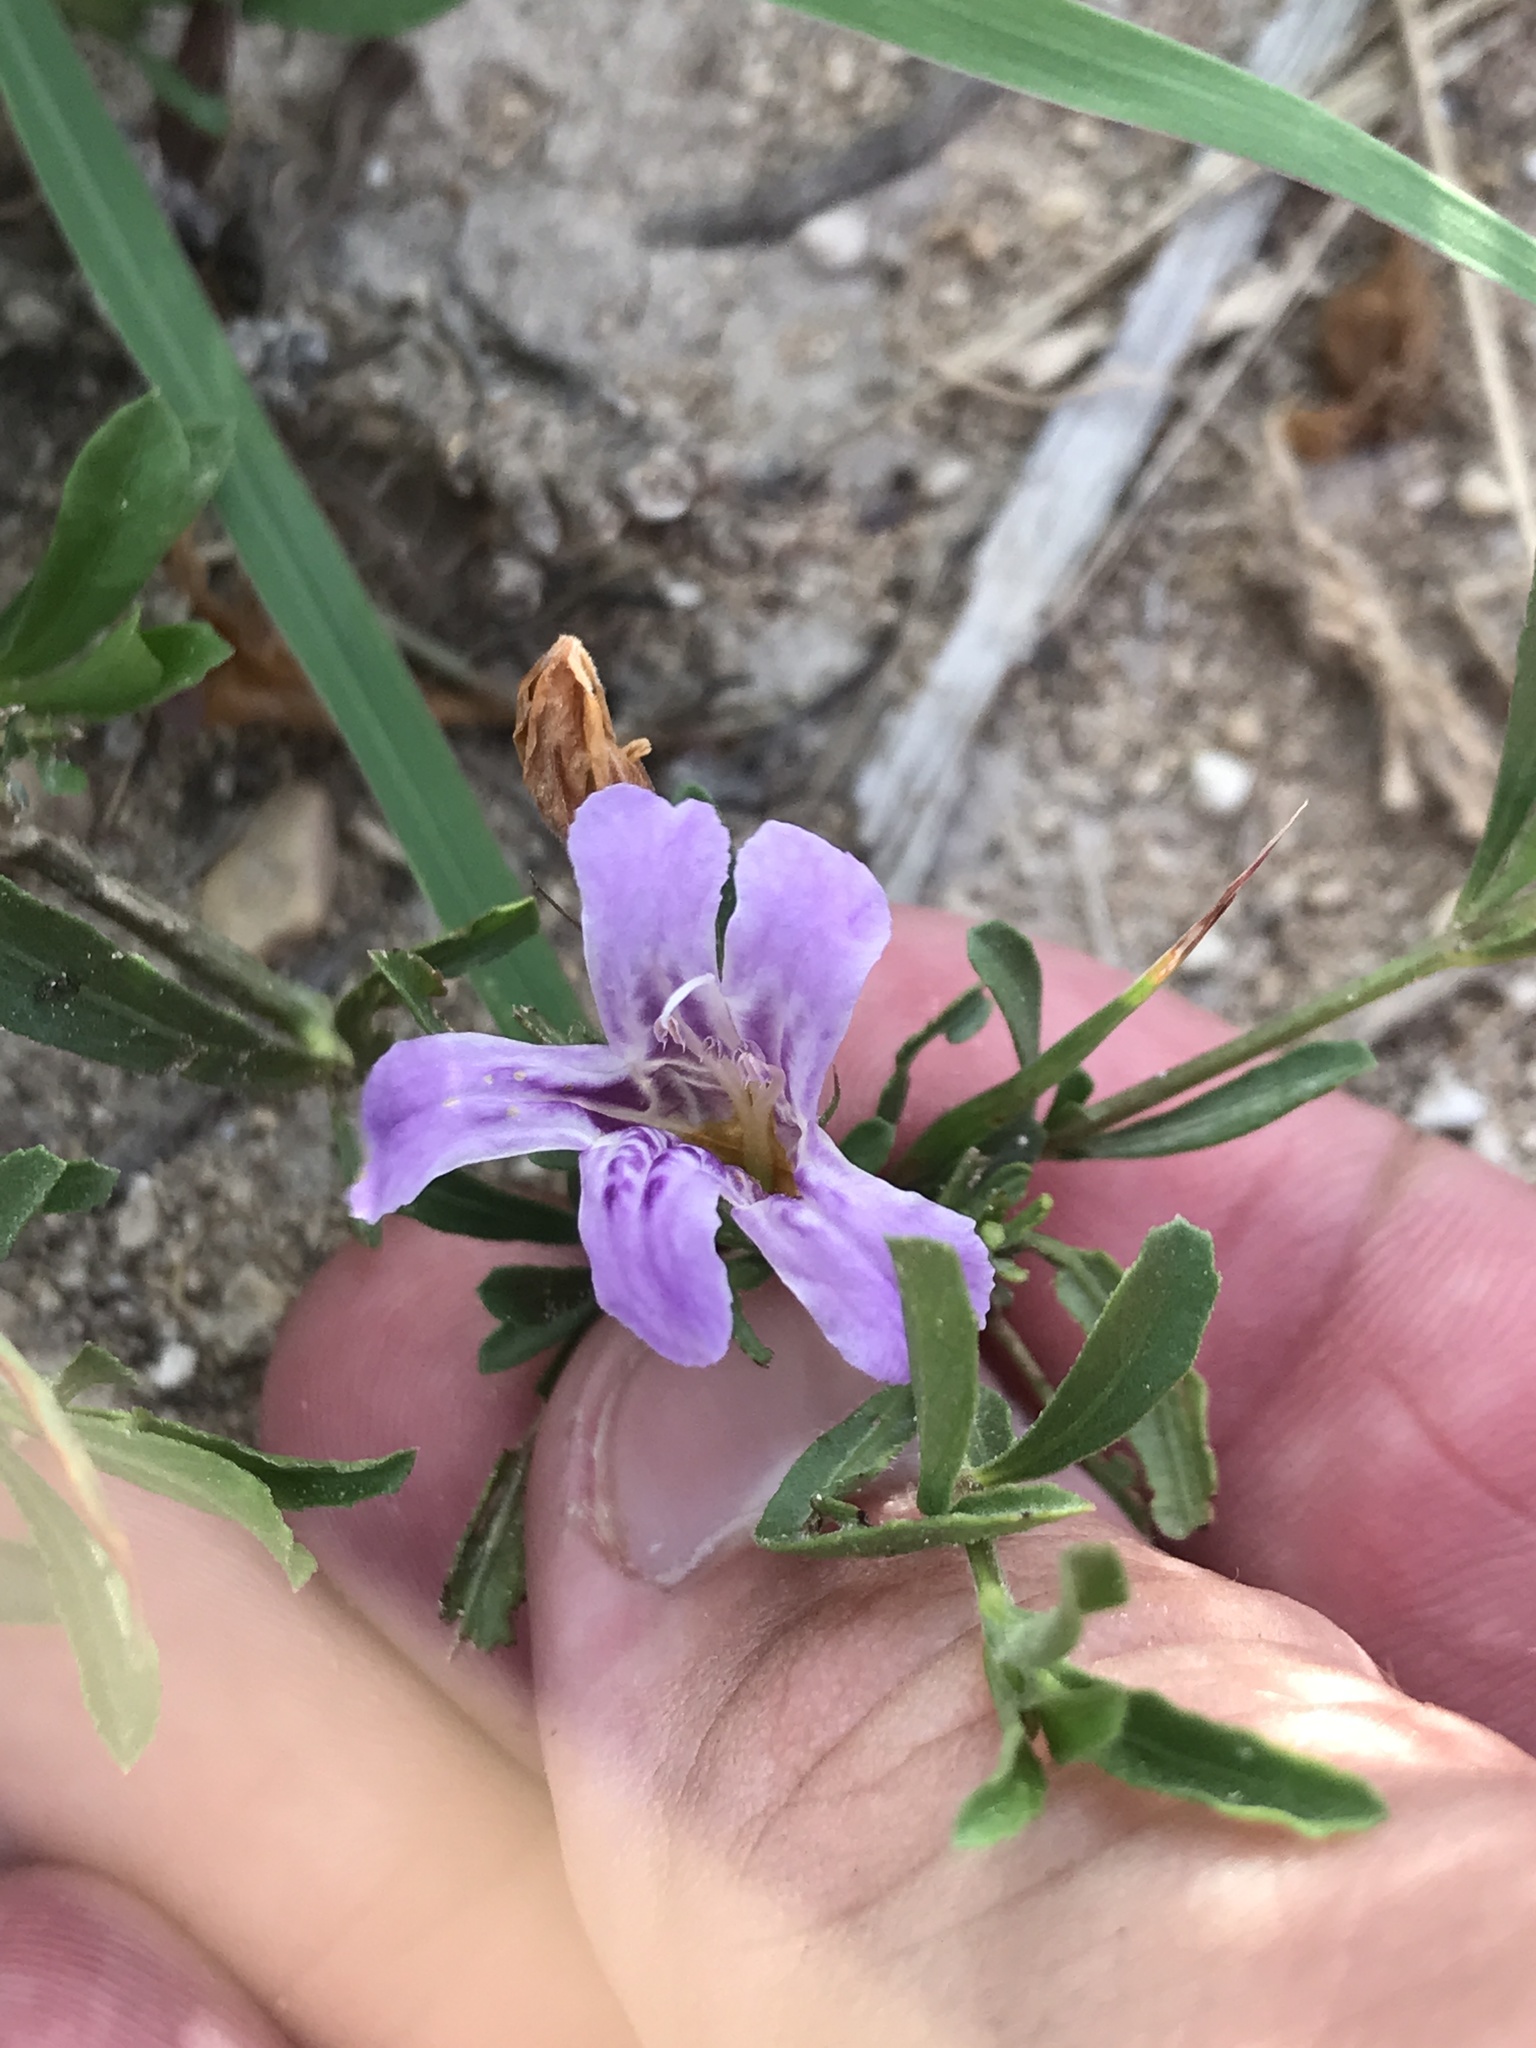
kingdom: Plantae
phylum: Tracheophyta
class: Magnoliopsida
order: Lamiales
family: Acanthaceae
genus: Dyschoriste
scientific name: Dyschoriste linearis
